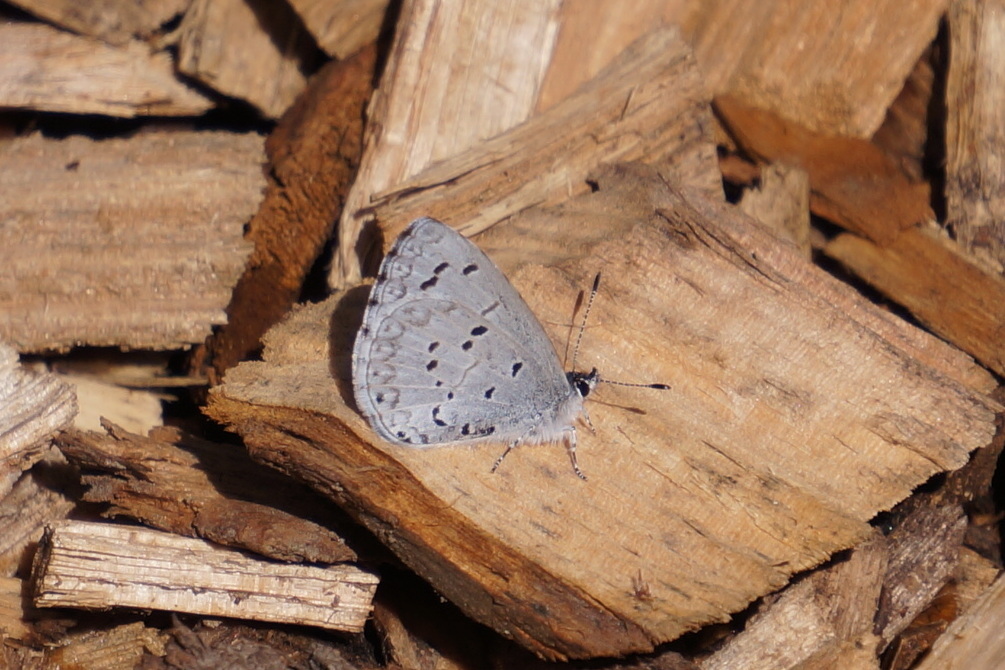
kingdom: Animalia
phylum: Arthropoda
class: Insecta
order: Lepidoptera
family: Lycaenidae
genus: Celastrina
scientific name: Celastrina ladon
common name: Spring azure
